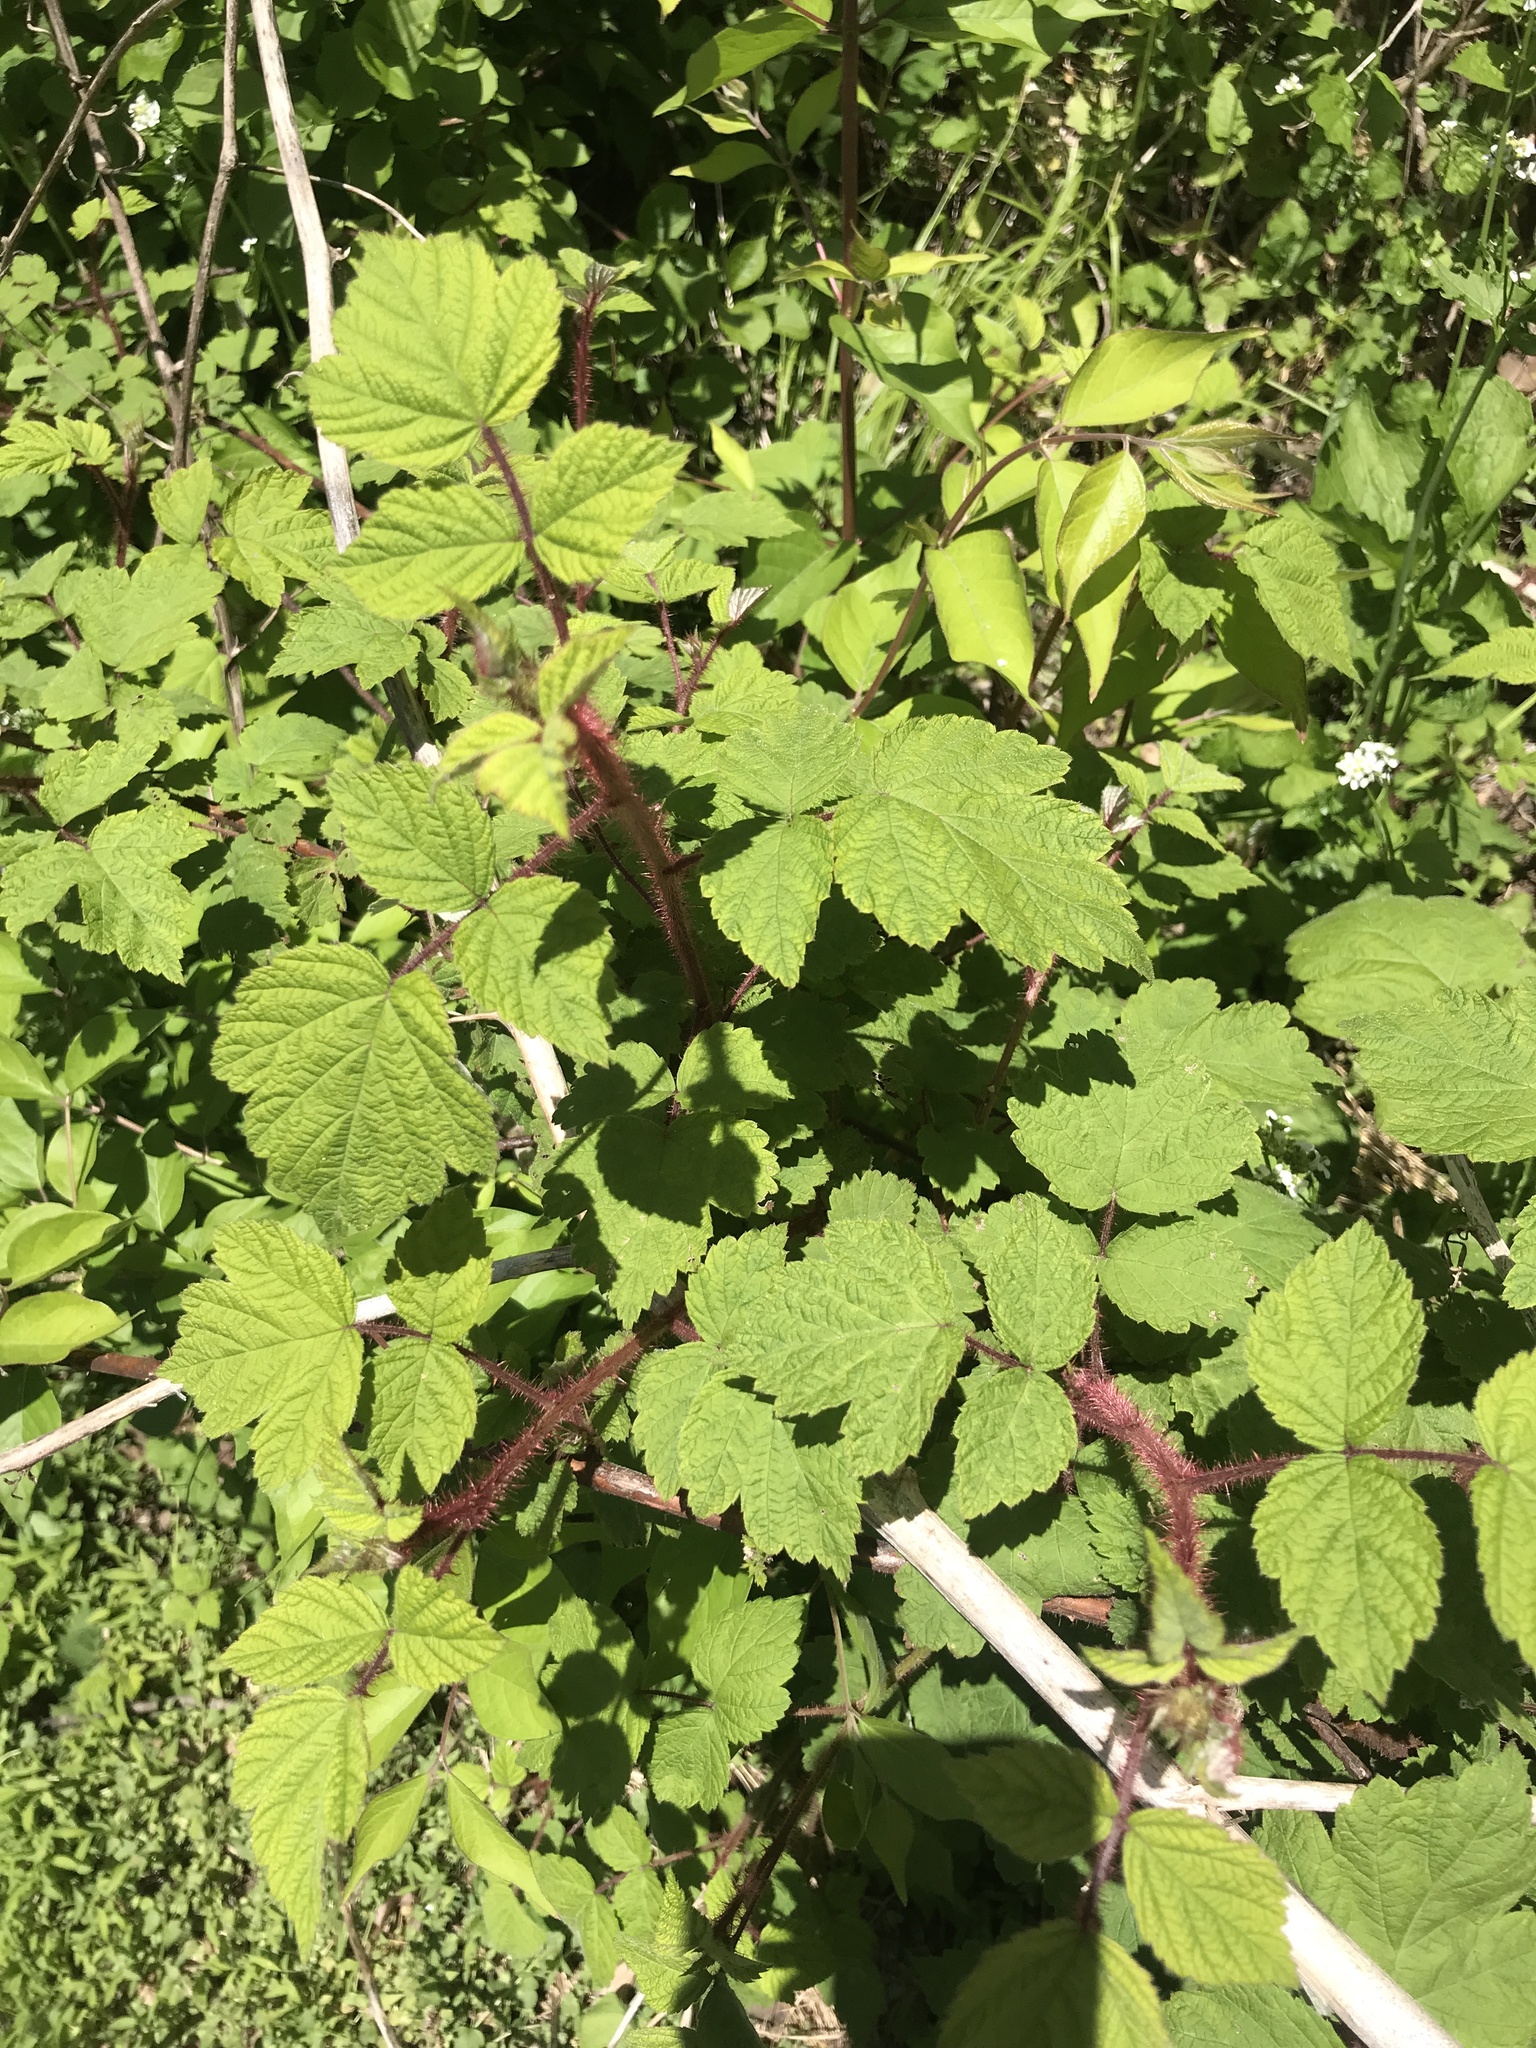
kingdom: Plantae
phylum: Tracheophyta
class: Magnoliopsida
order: Rosales
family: Rosaceae
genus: Rubus
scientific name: Rubus phoenicolasius
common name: Japanese wineberry
